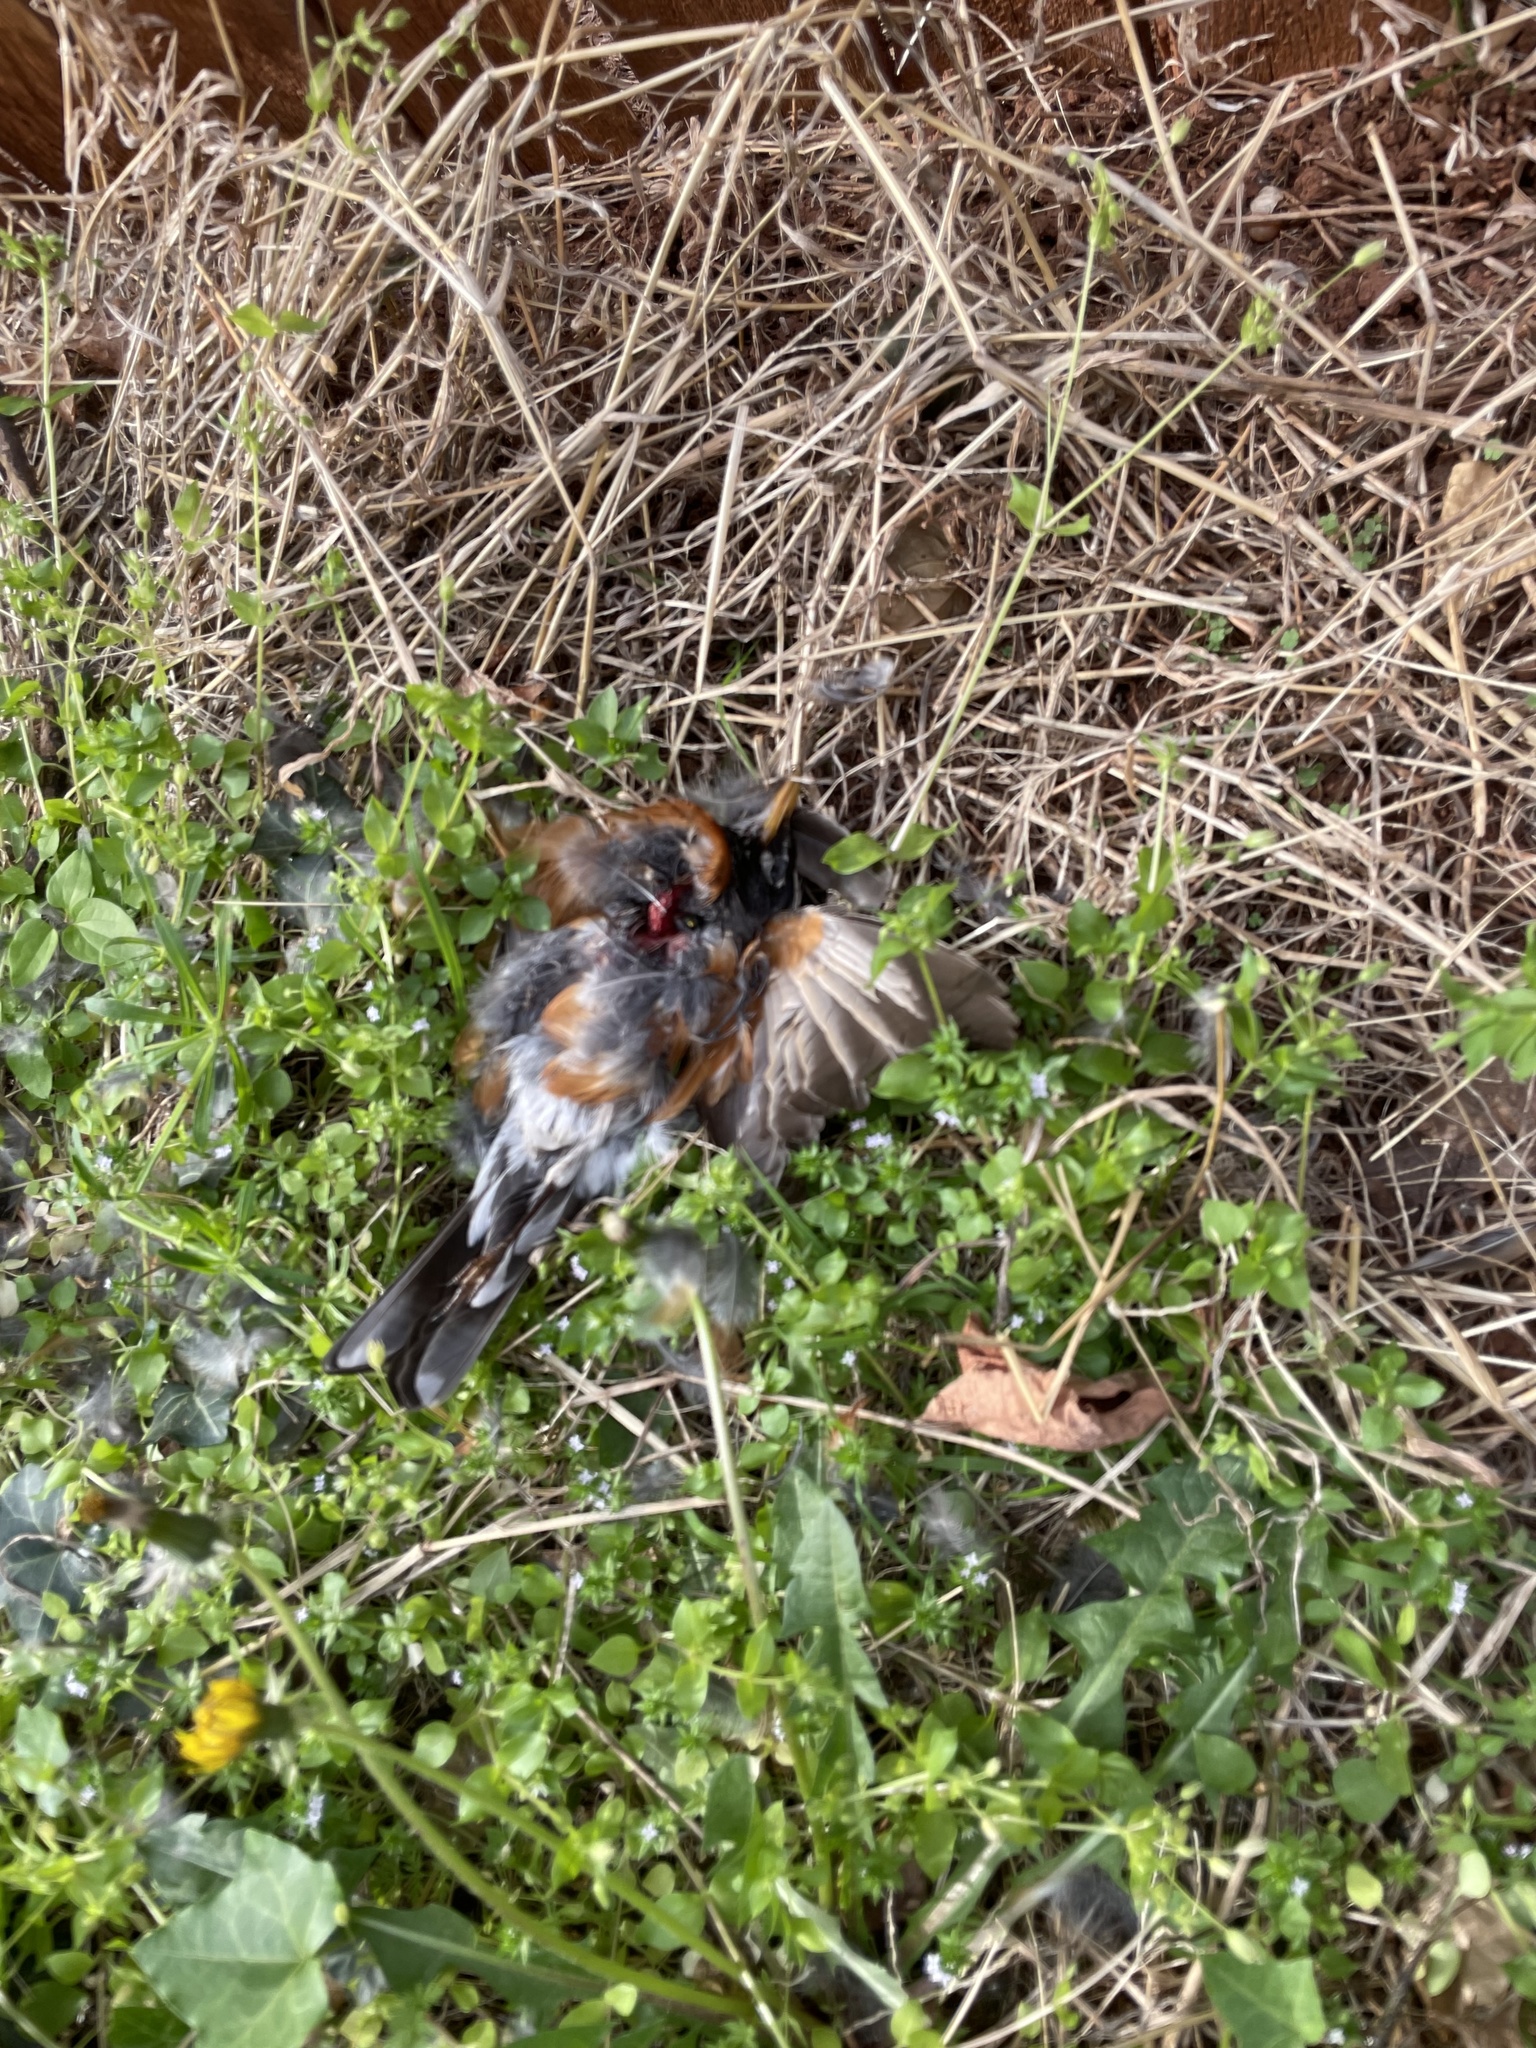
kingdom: Animalia
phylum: Chordata
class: Aves
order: Passeriformes
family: Turdidae
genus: Turdus
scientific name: Turdus migratorius
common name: American robin
